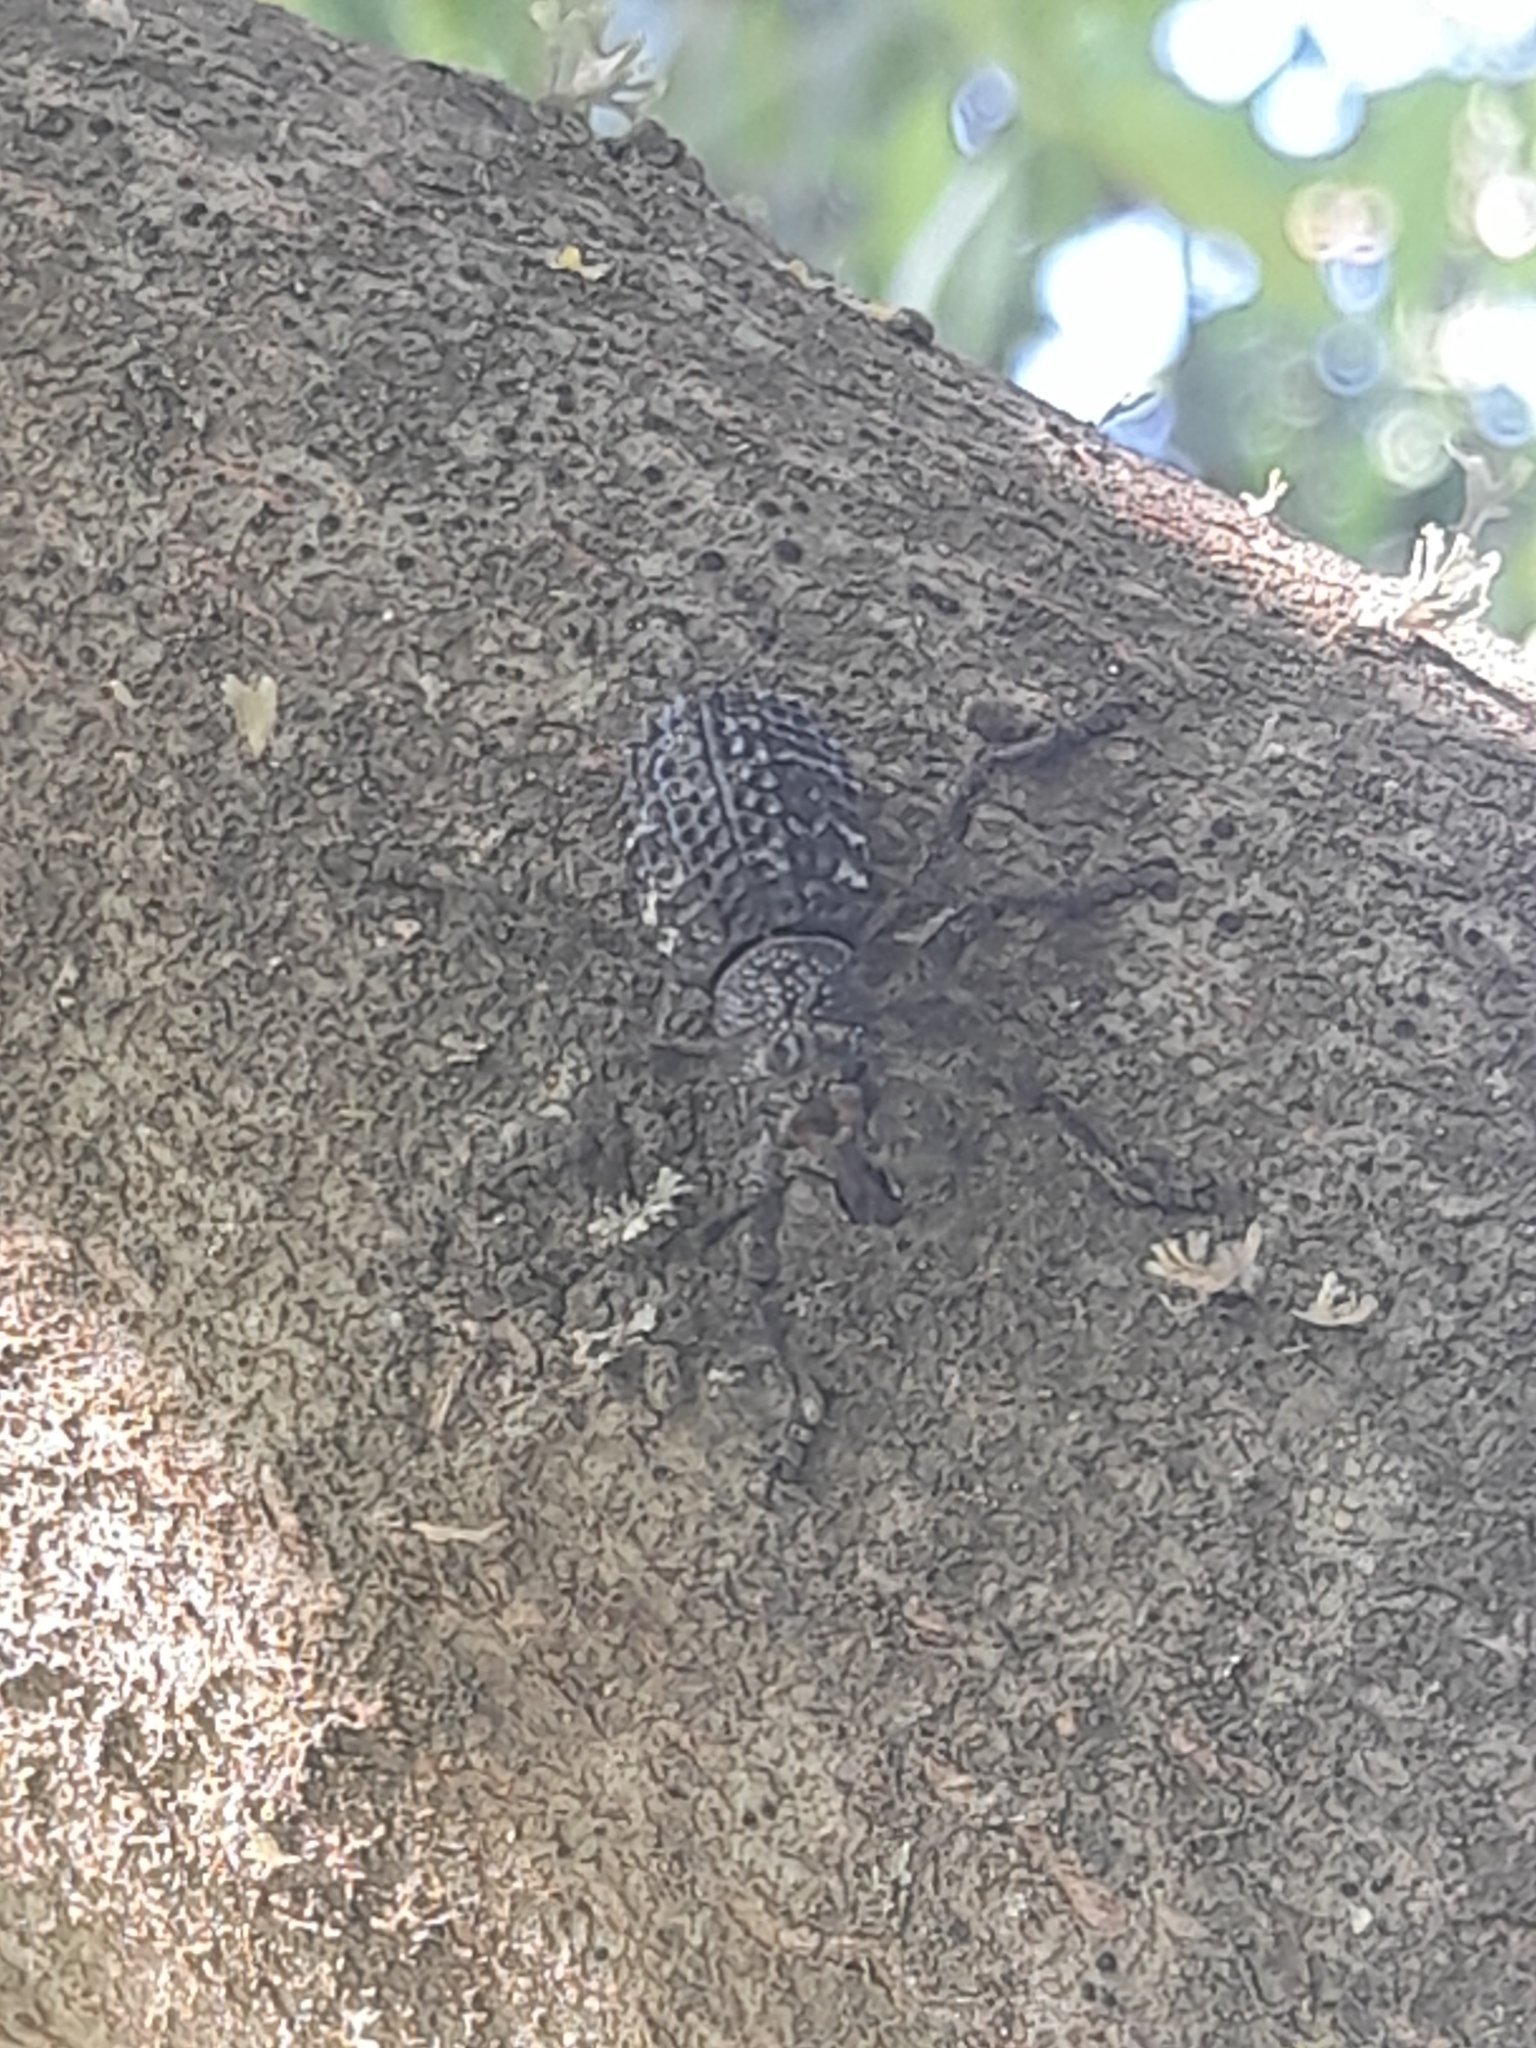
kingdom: Animalia
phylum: Arthropoda
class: Insecta
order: Coleoptera
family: Curculionidae
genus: Aegorhinus
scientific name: Aegorhinus superciliosus
